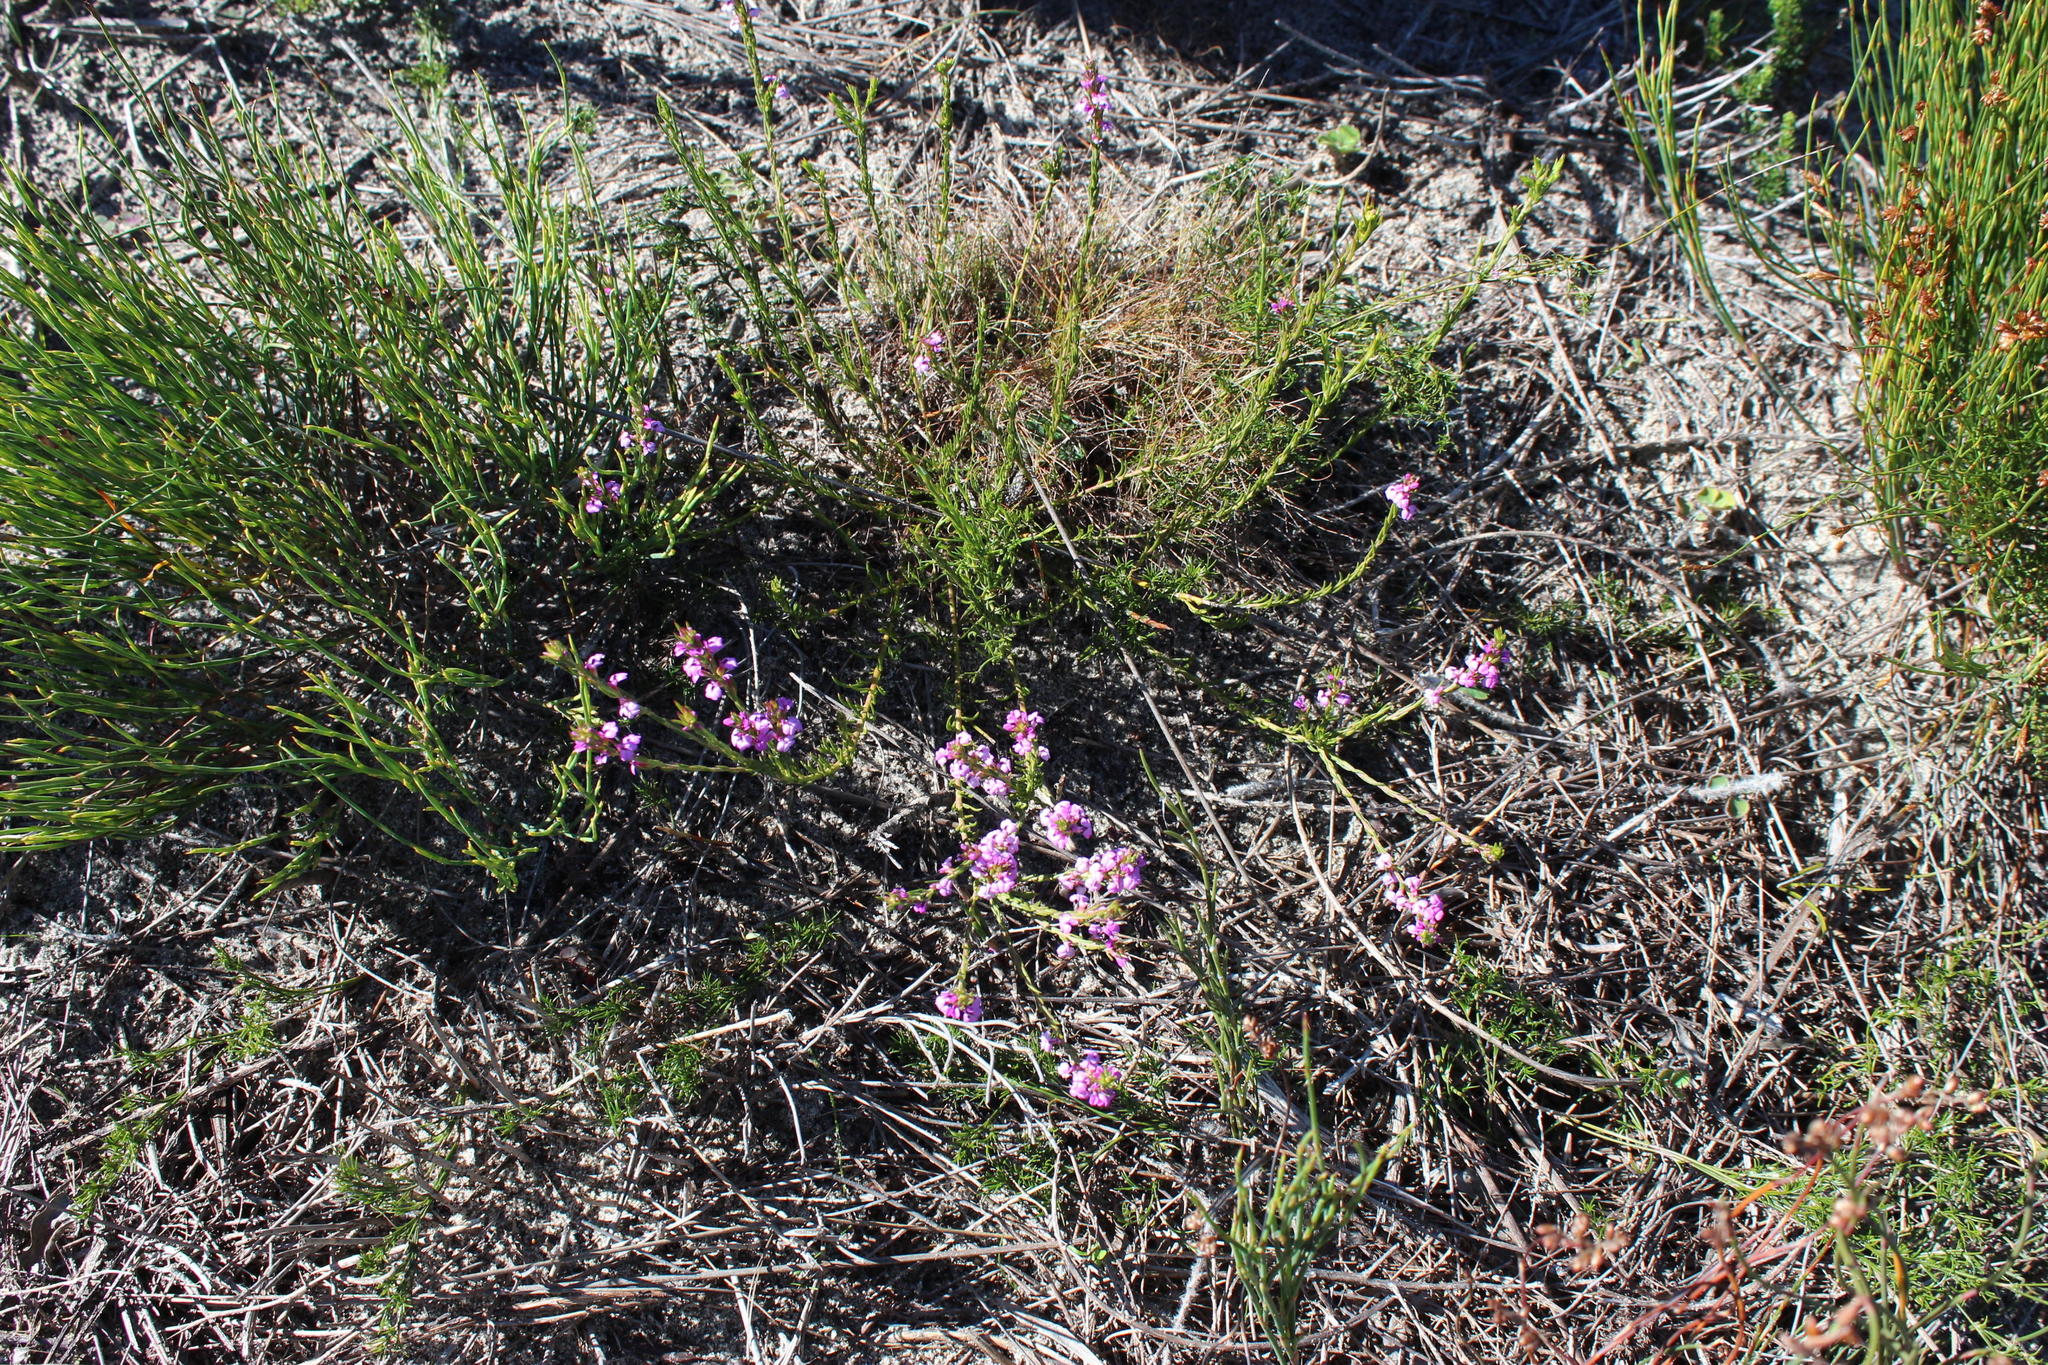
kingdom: Plantae
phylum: Tracheophyta
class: Magnoliopsida
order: Fabales
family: Polygalaceae
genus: Muraltia
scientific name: Muraltia filiformis
